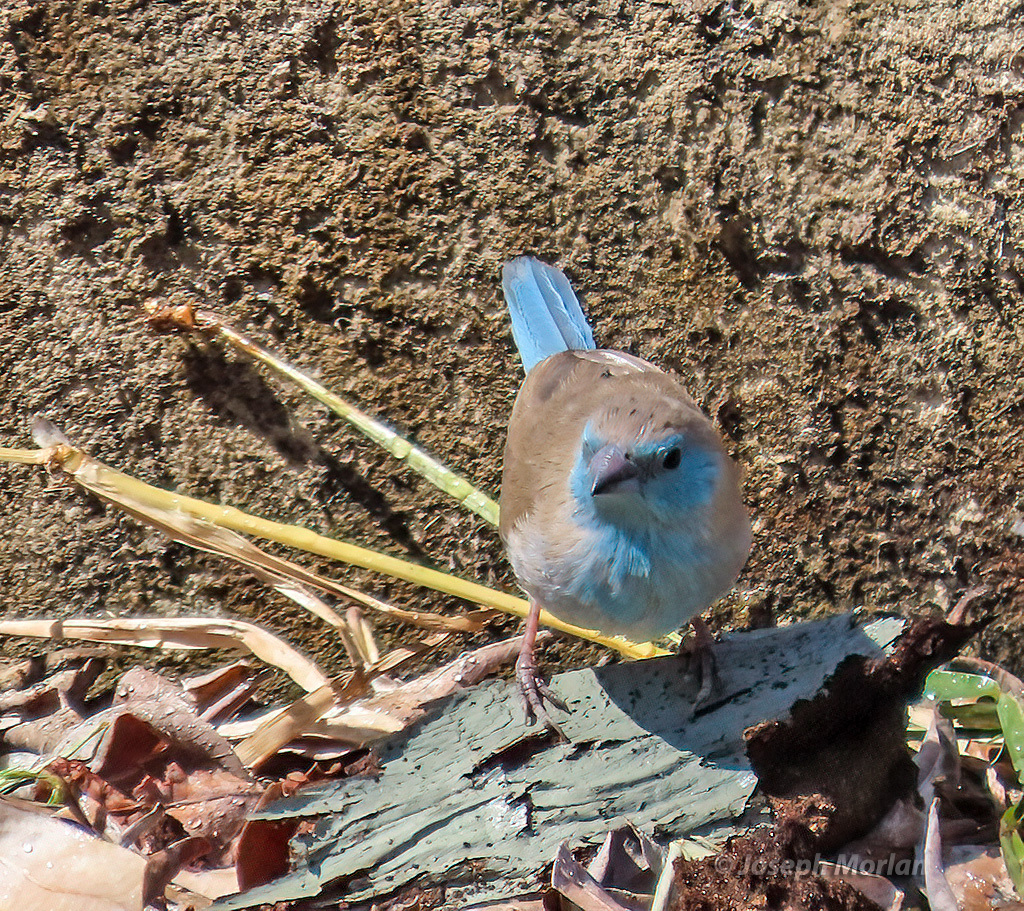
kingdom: Animalia
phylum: Chordata
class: Aves
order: Passeriformes
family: Estrildidae
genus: Uraeginthus
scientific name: Uraeginthus angolensis
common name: Blue waxbill
